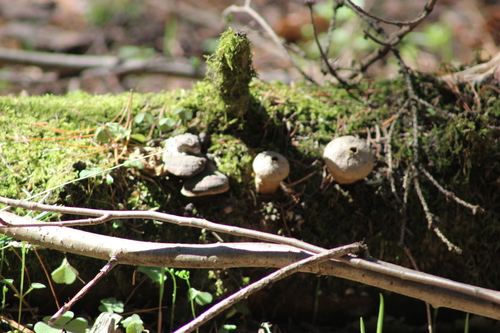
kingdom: Fungi
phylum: Basidiomycota
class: Agaricomycetes
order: Agaricales
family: Lycoperdaceae
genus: Lycoperdon
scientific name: Lycoperdon
